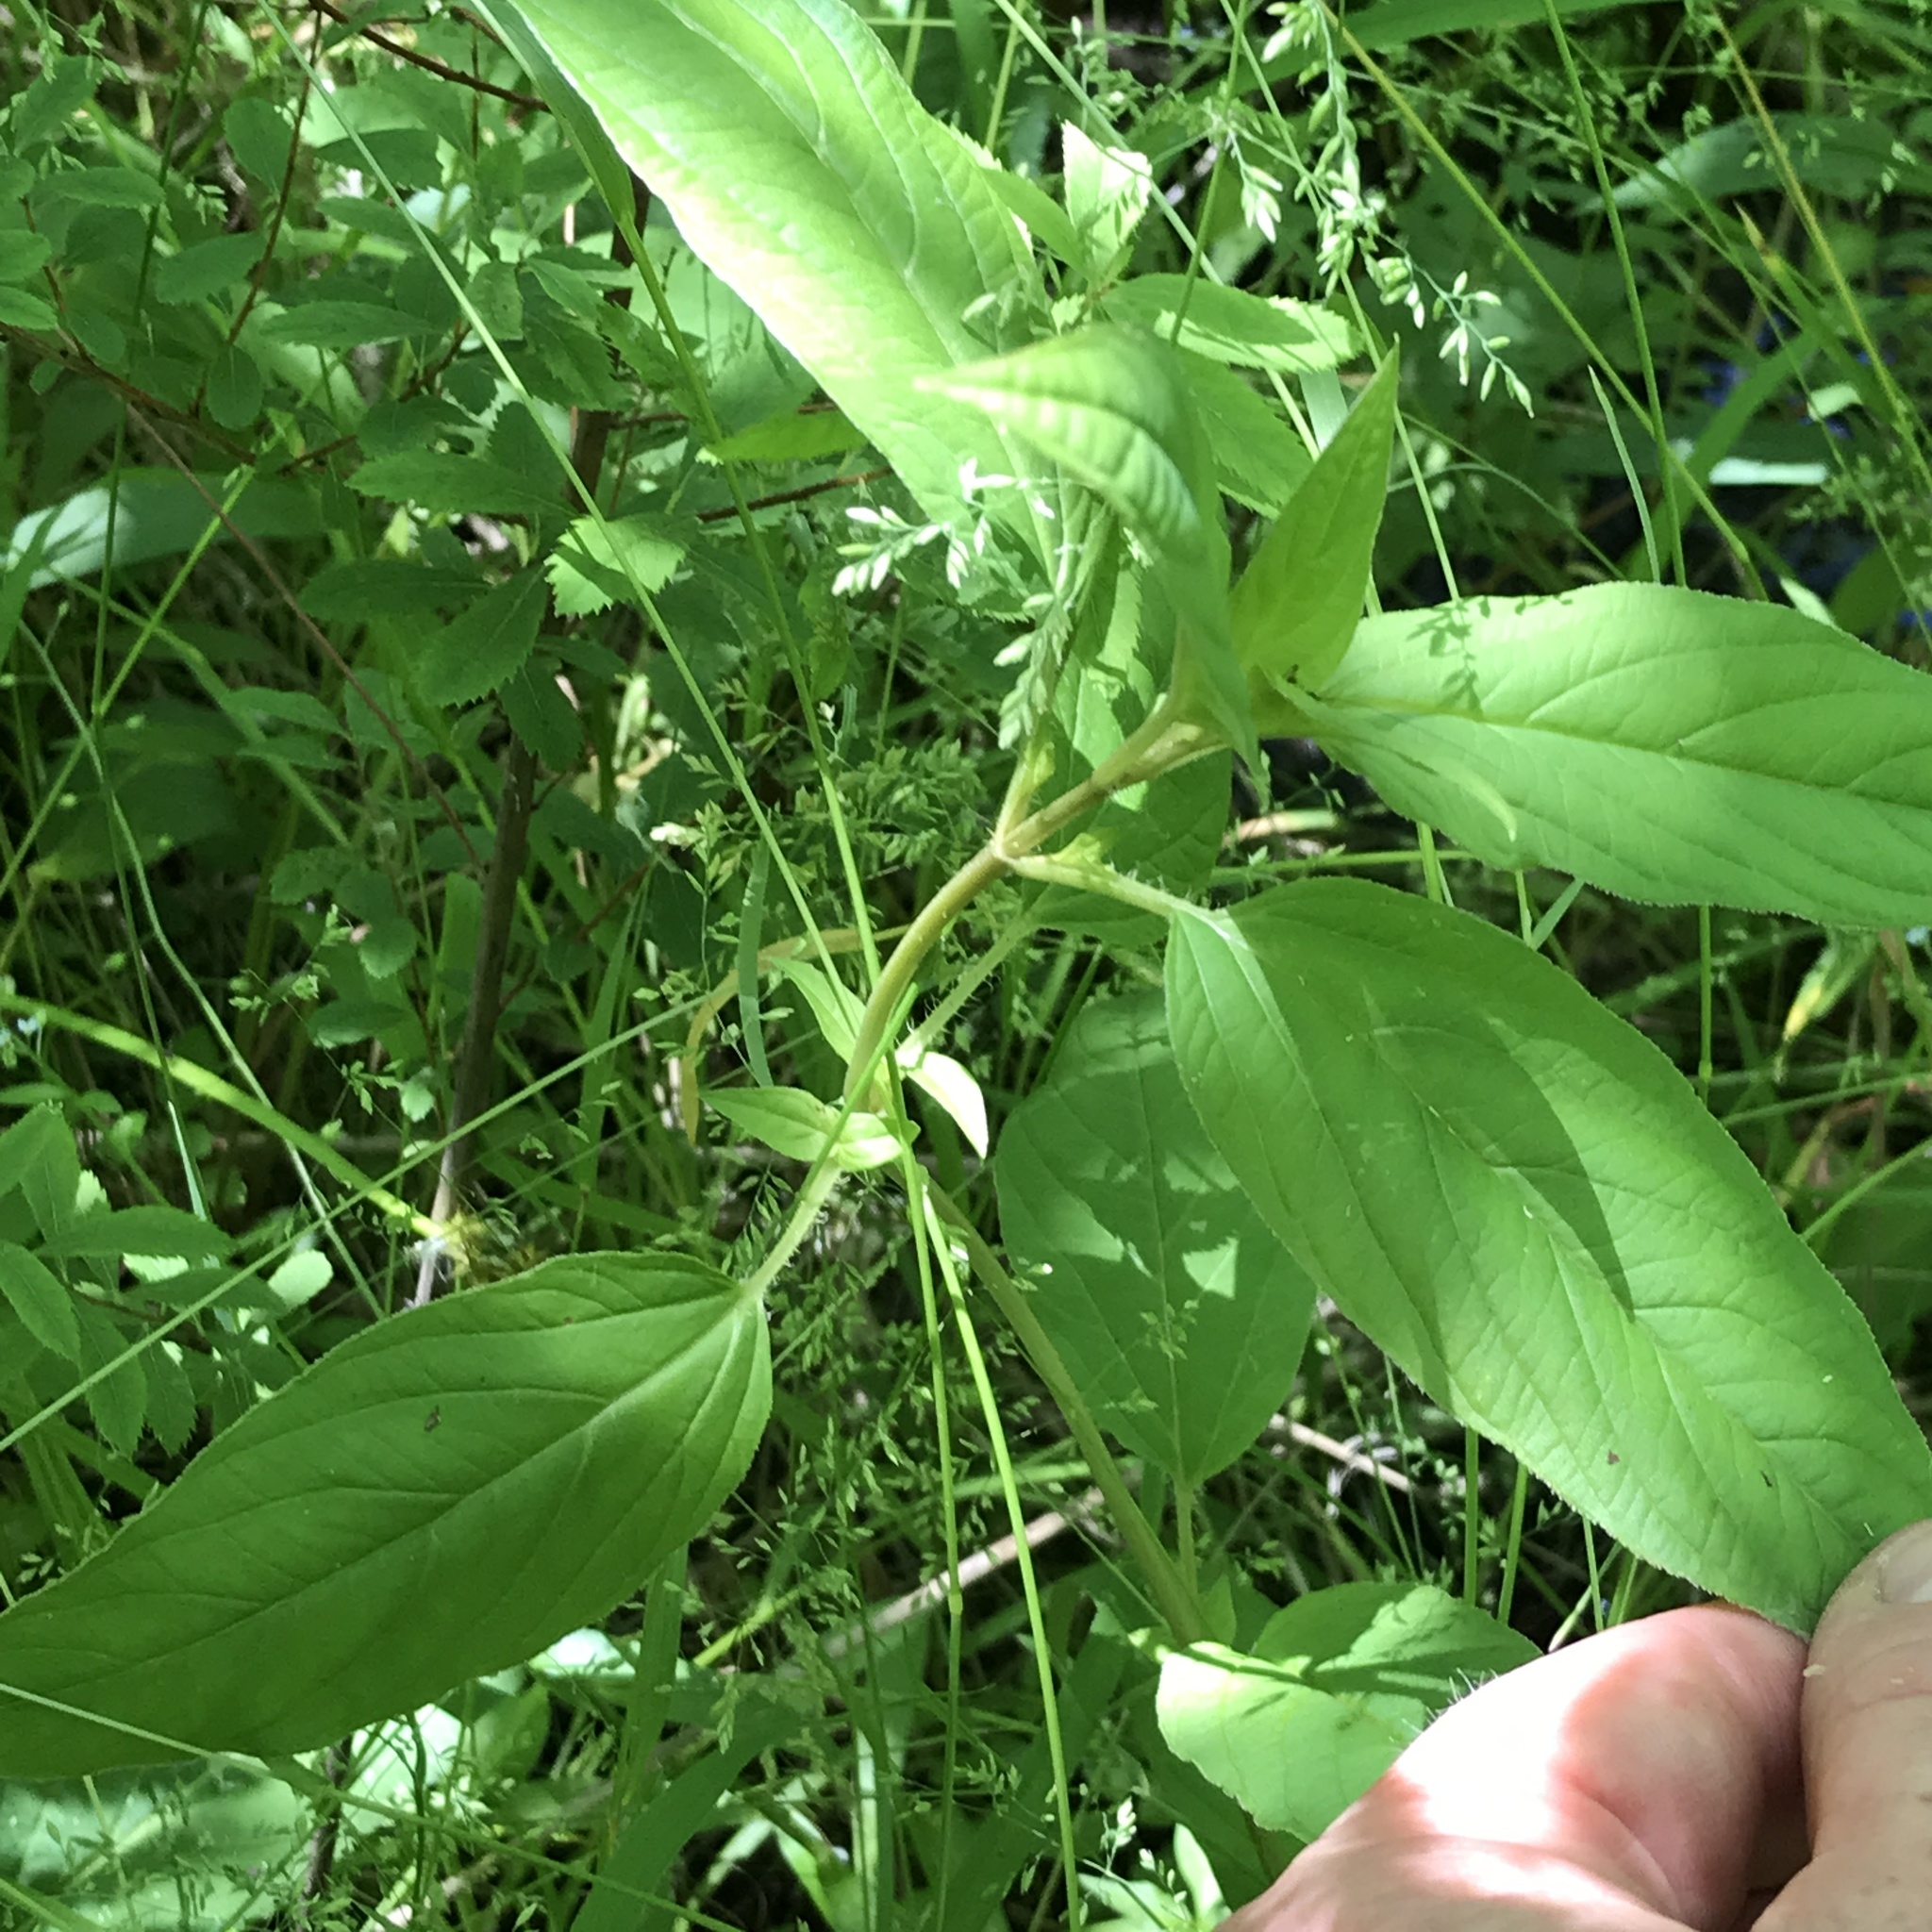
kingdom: Plantae
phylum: Tracheophyta
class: Magnoliopsida
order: Ericales
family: Primulaceae
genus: Lysimachia
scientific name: Lysimachia ciliata
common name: Fringed loosestrife
